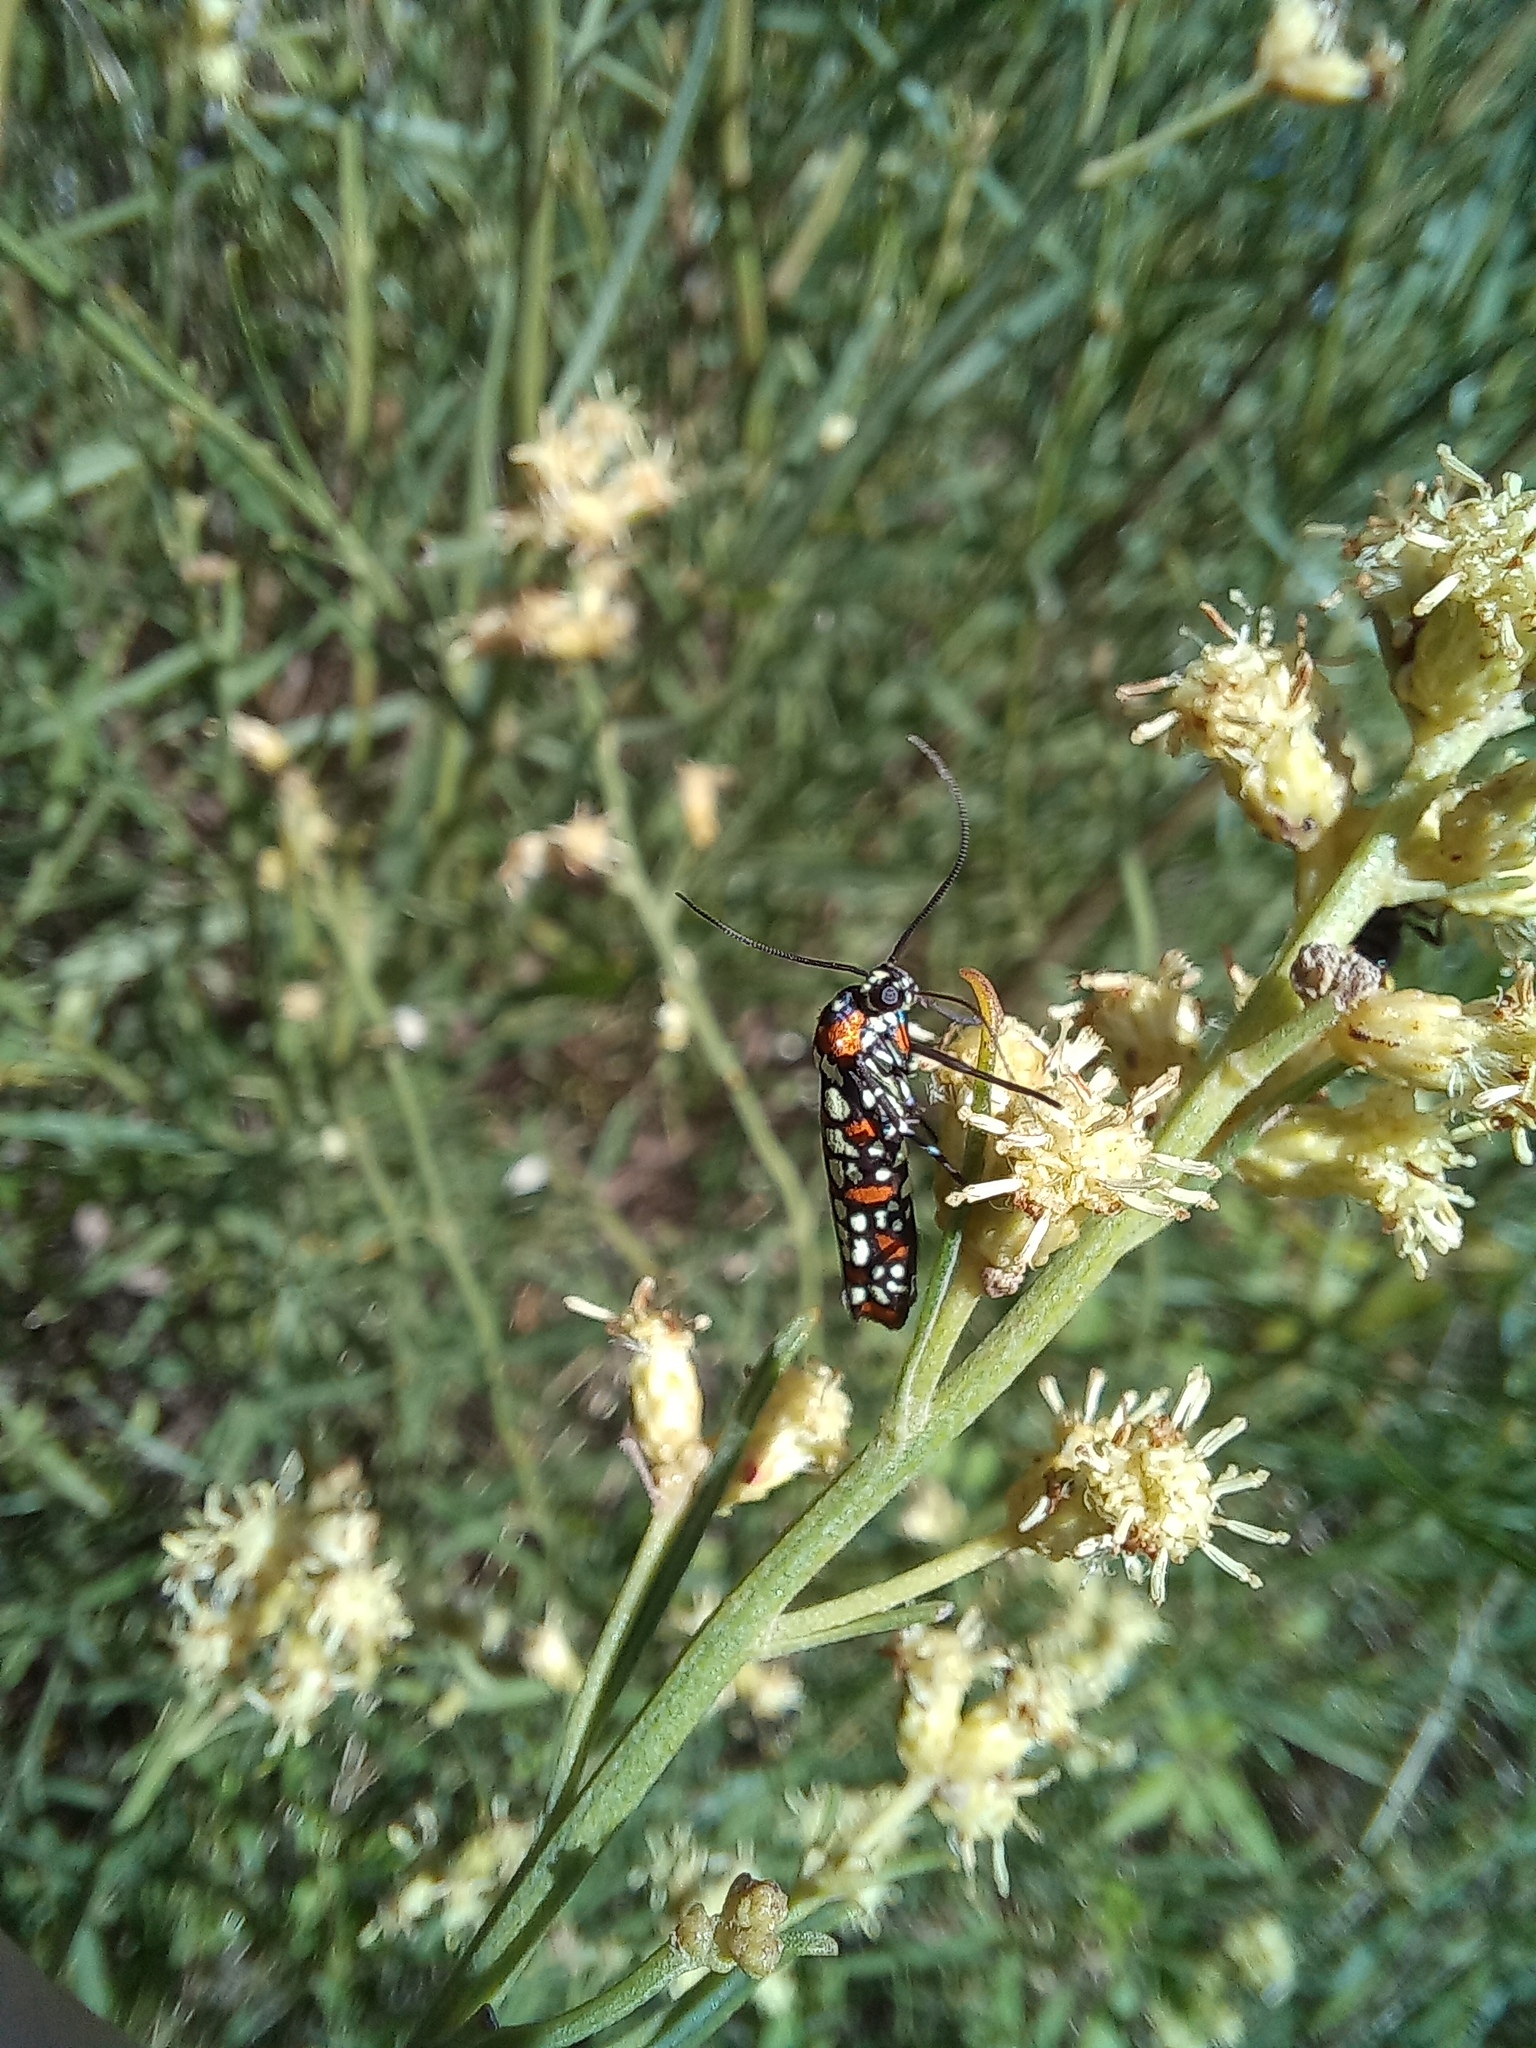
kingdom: Animalia
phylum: Arthropoda
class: Insecta
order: Lepidoptera
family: Attevidae
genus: Atteva
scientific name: Atteva punctella
